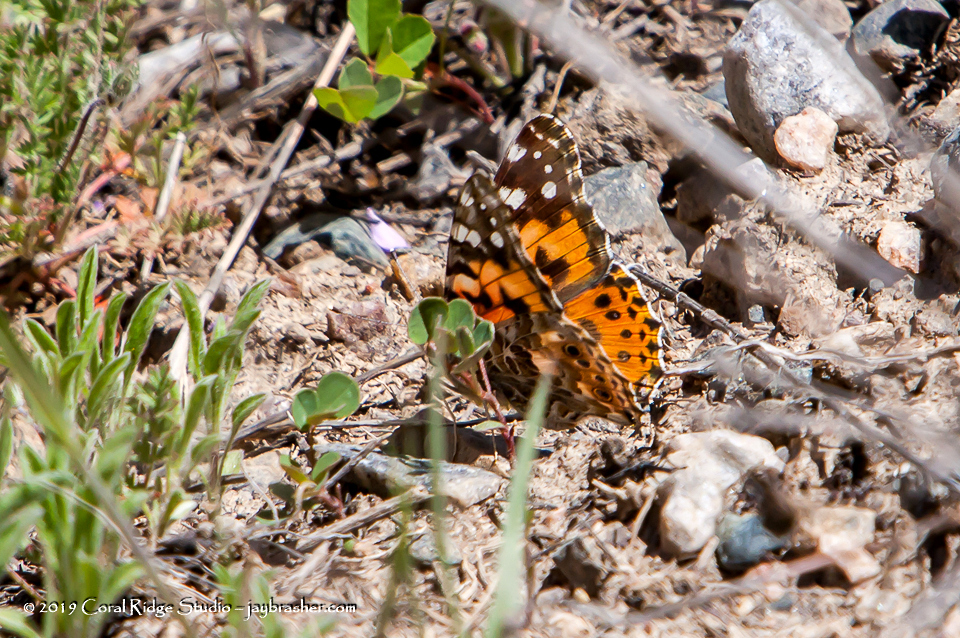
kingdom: Animalia
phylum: Arthropoda
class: Insecta
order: Lepidoptera
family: Nymphalidae
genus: Vanessa
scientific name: Vanessa cardui
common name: Painted lady
